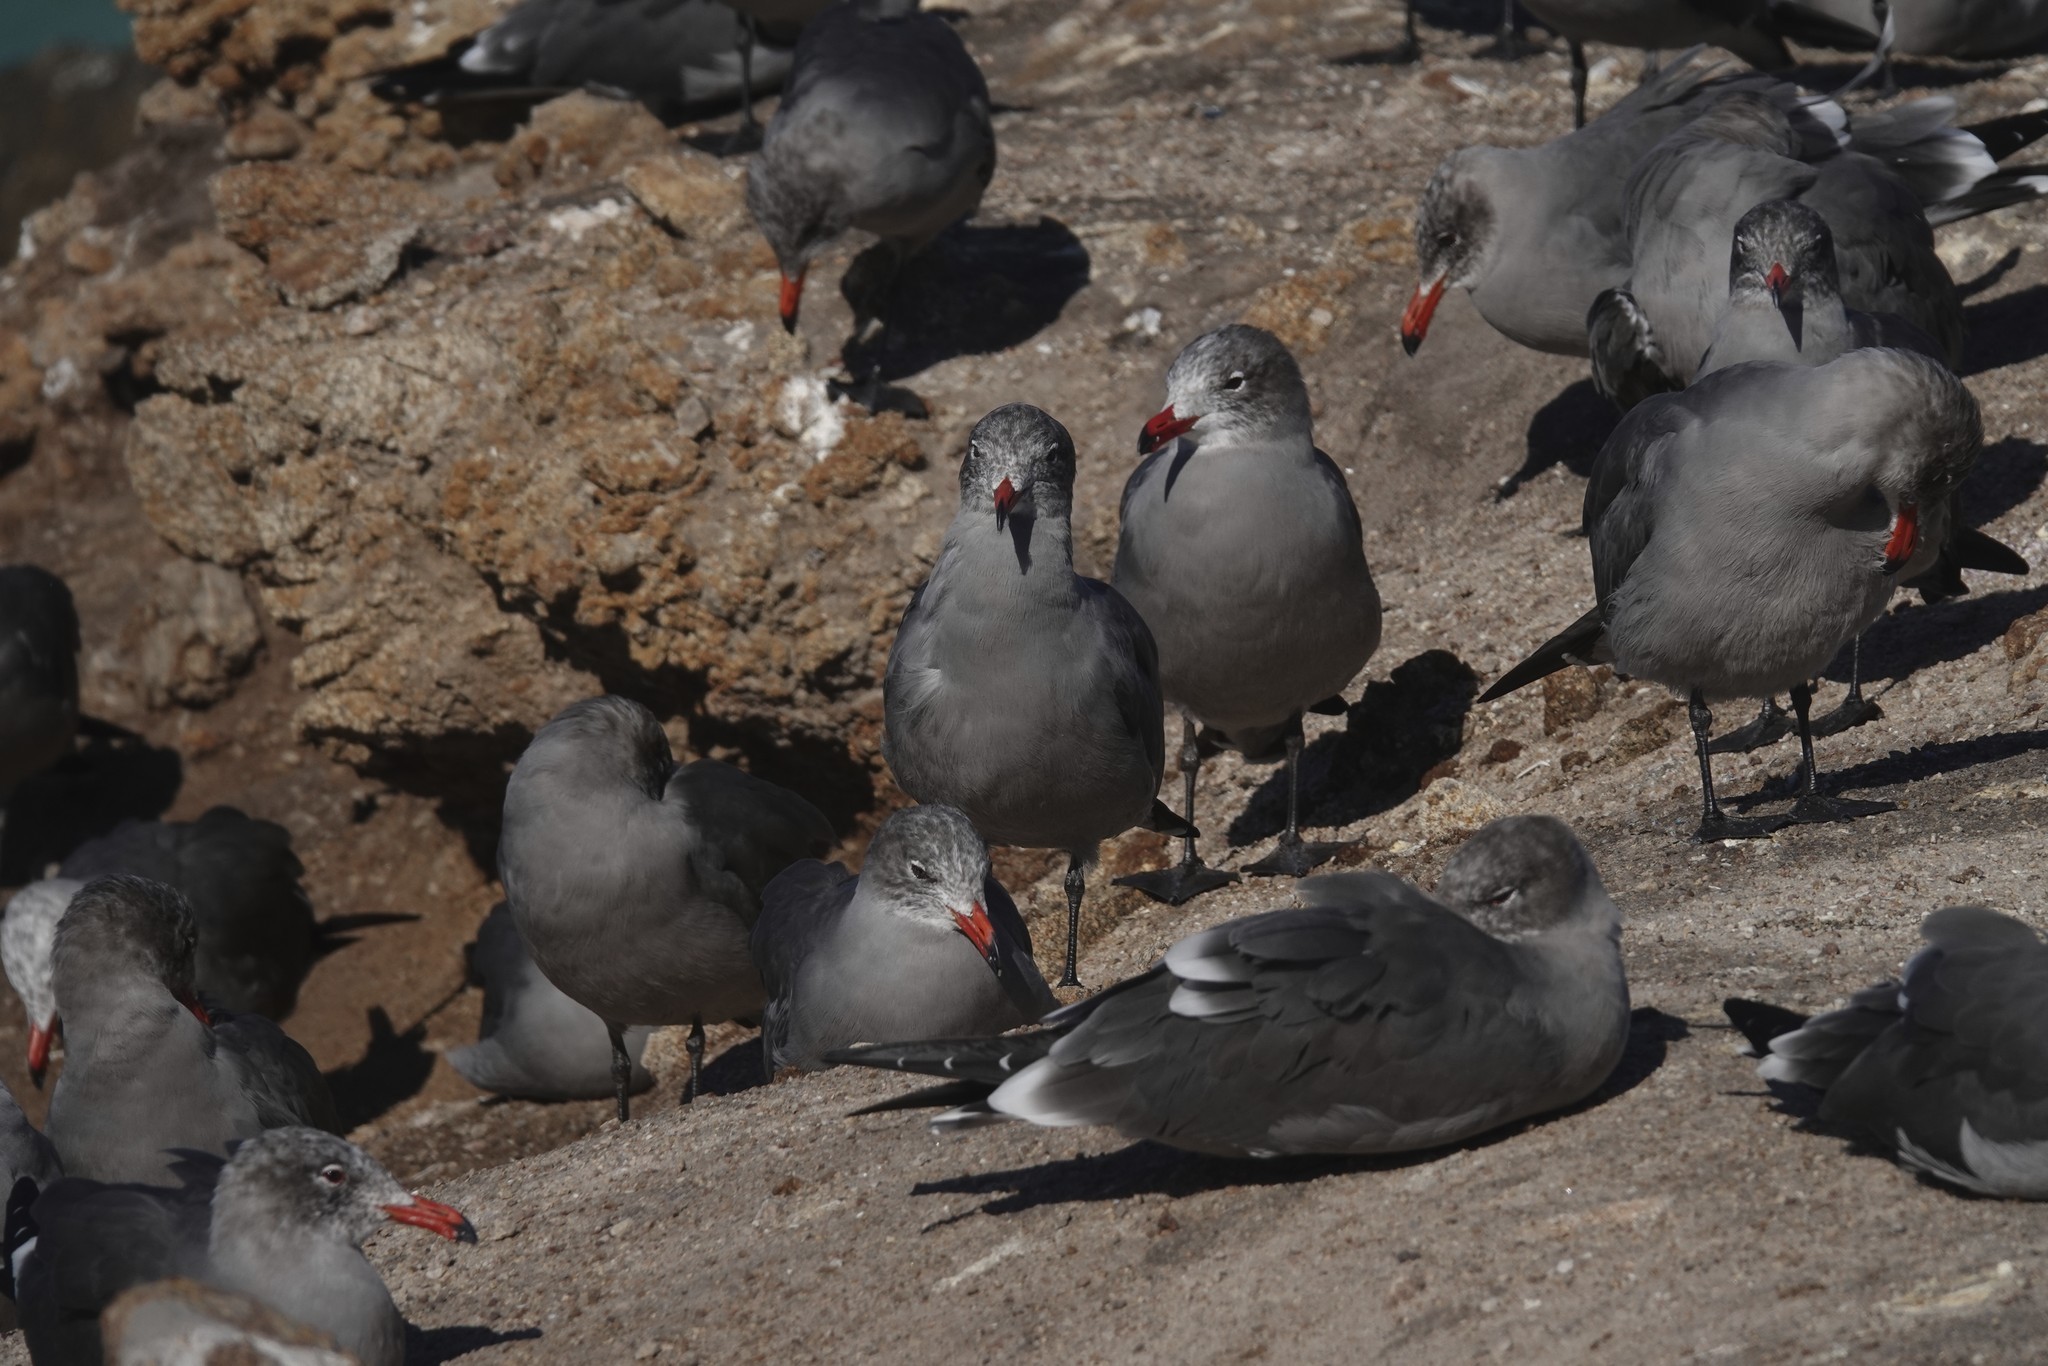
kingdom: Animalia
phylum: Chordata
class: Aves
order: Charadriiformes
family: Laridae
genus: Larus
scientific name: Larus heermanni
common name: Heermann's gull
